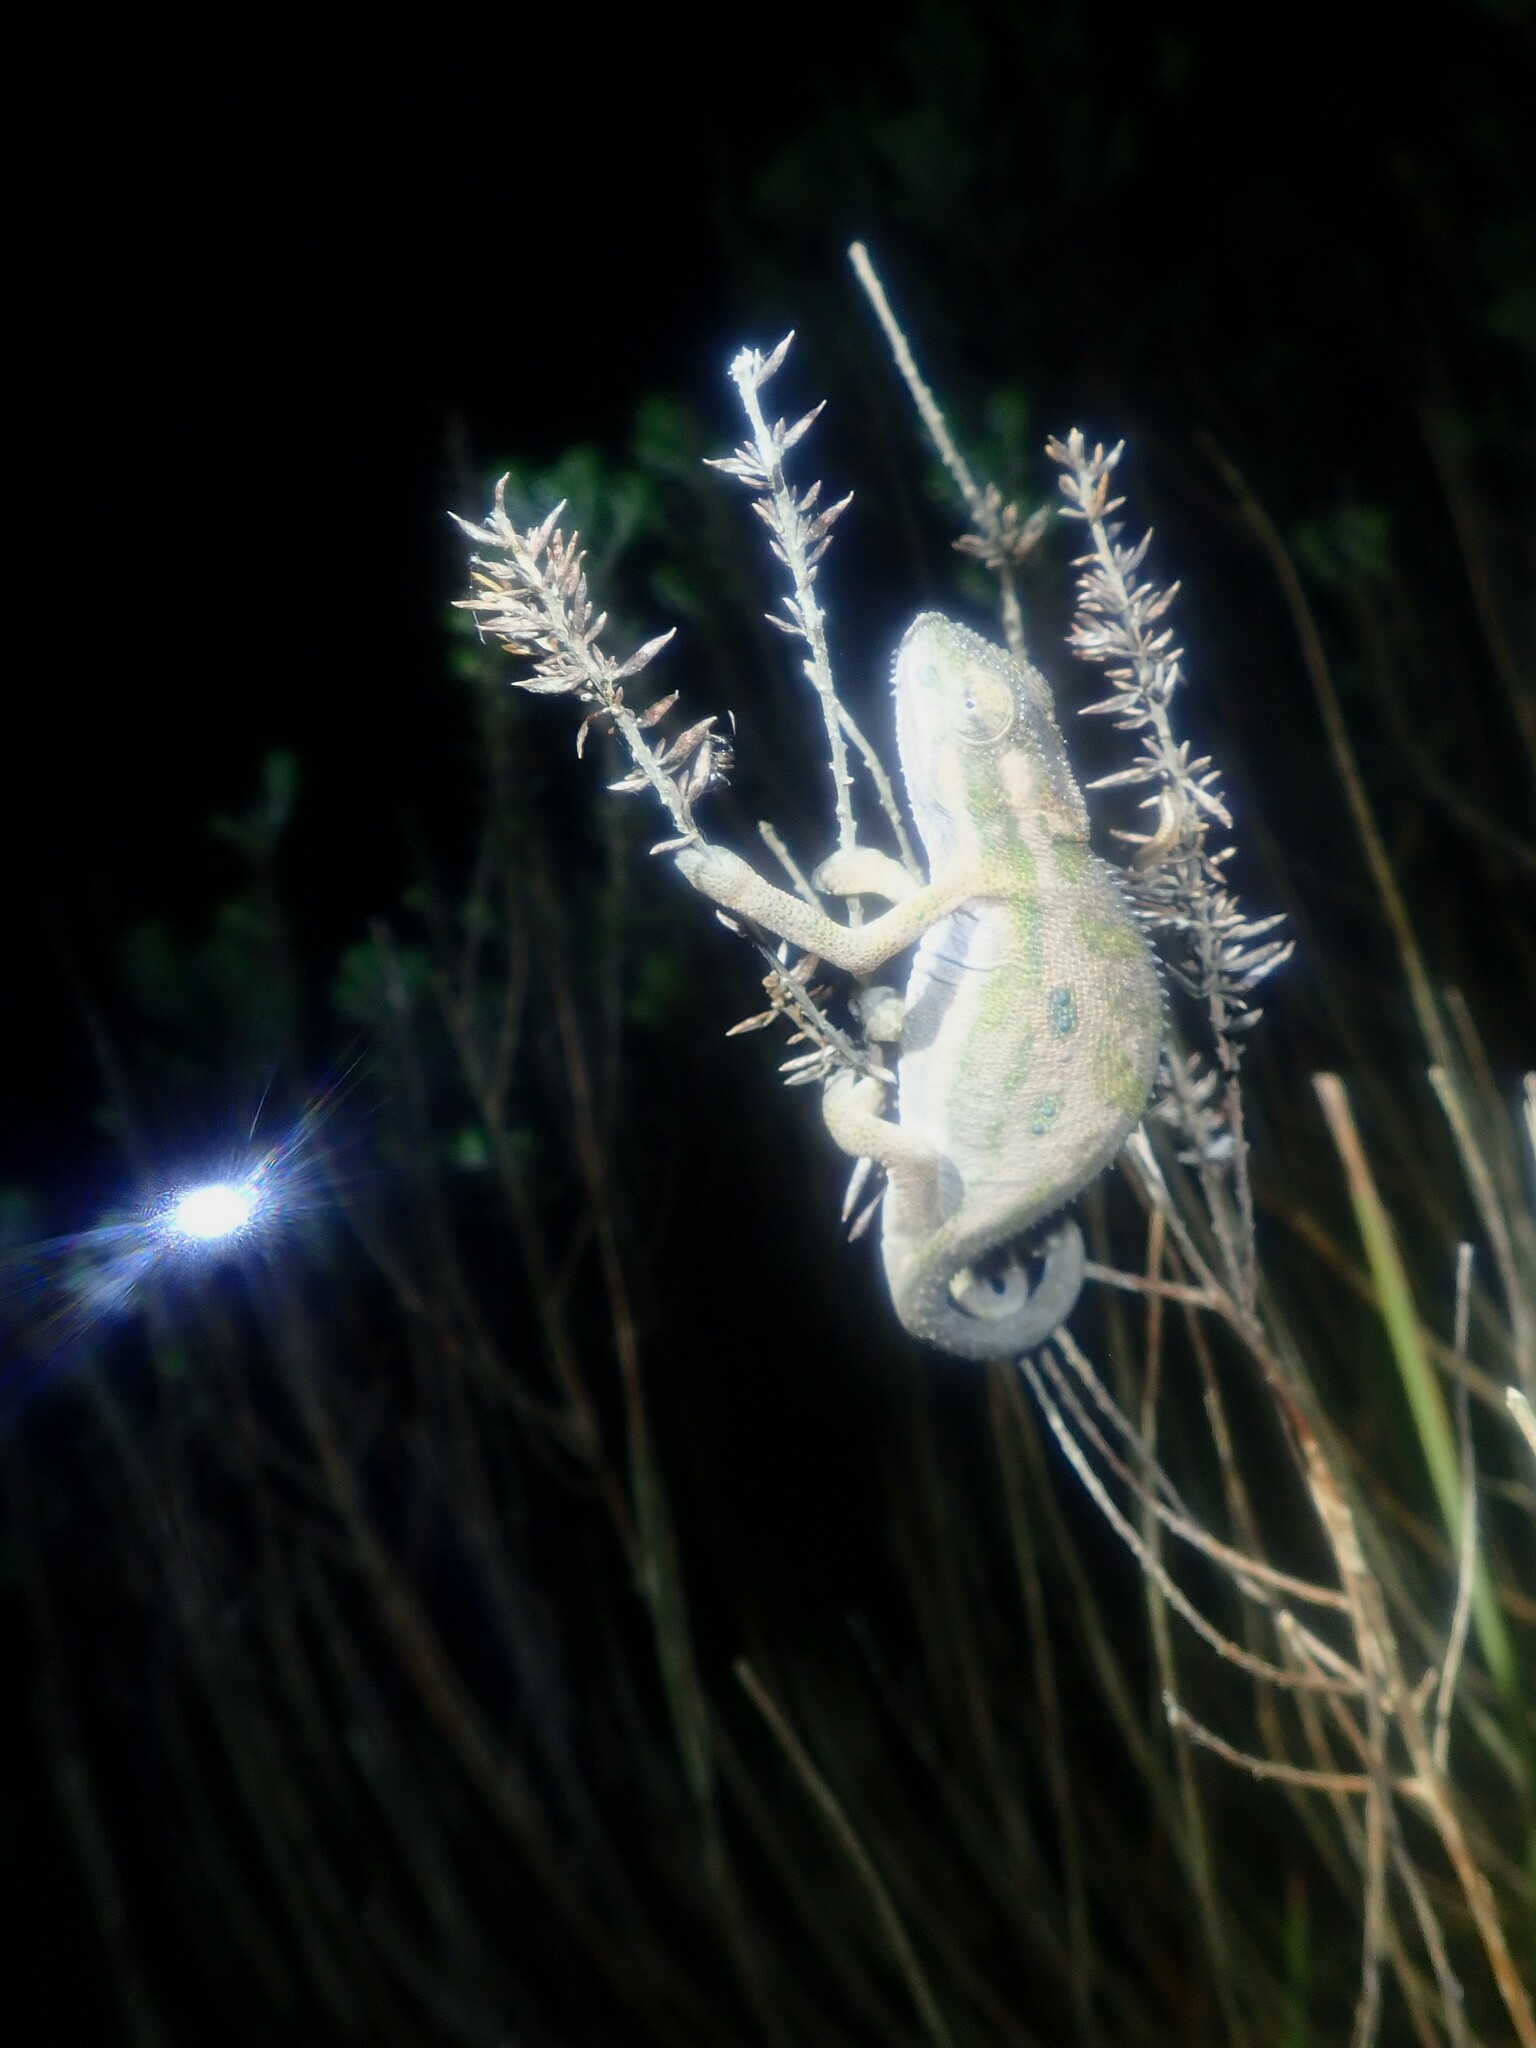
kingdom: Animalia
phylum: Chordata
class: Squamata
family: Chamaeleonidae
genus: Bradypodion
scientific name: Bradypodion pumilum
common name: Cape dwarf chameleon
